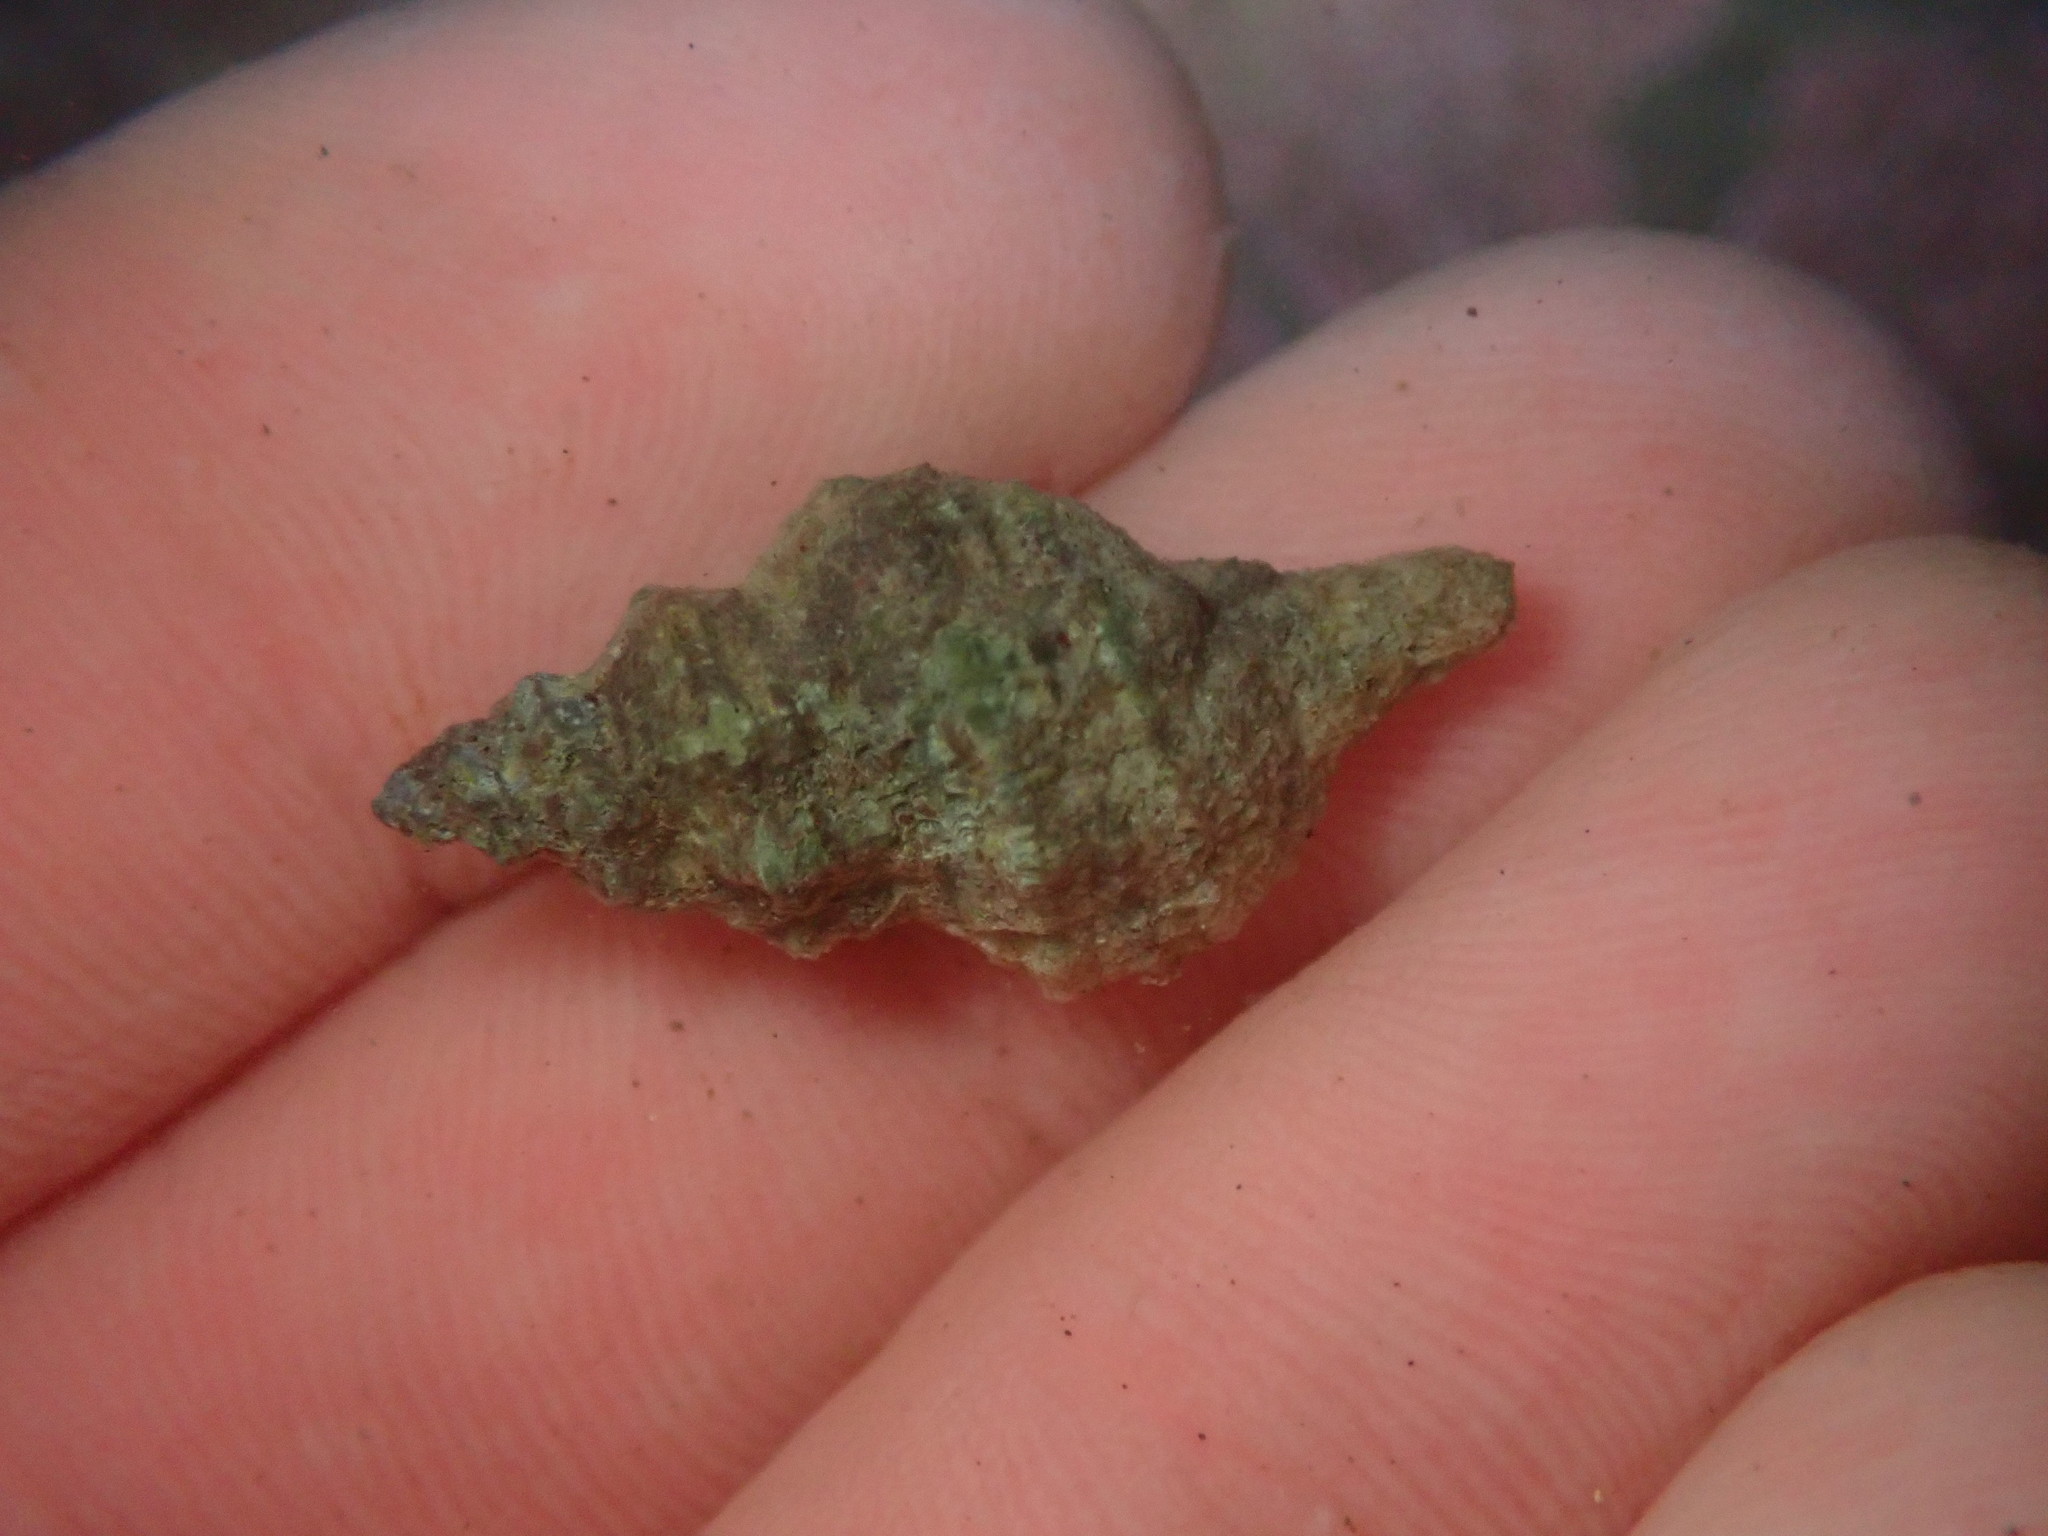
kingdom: Animalia
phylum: Mollusca
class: Gastropoda
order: Neogastropoda
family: Muricidae
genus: Urosalpinx
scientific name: Urosalpinx subangulata
